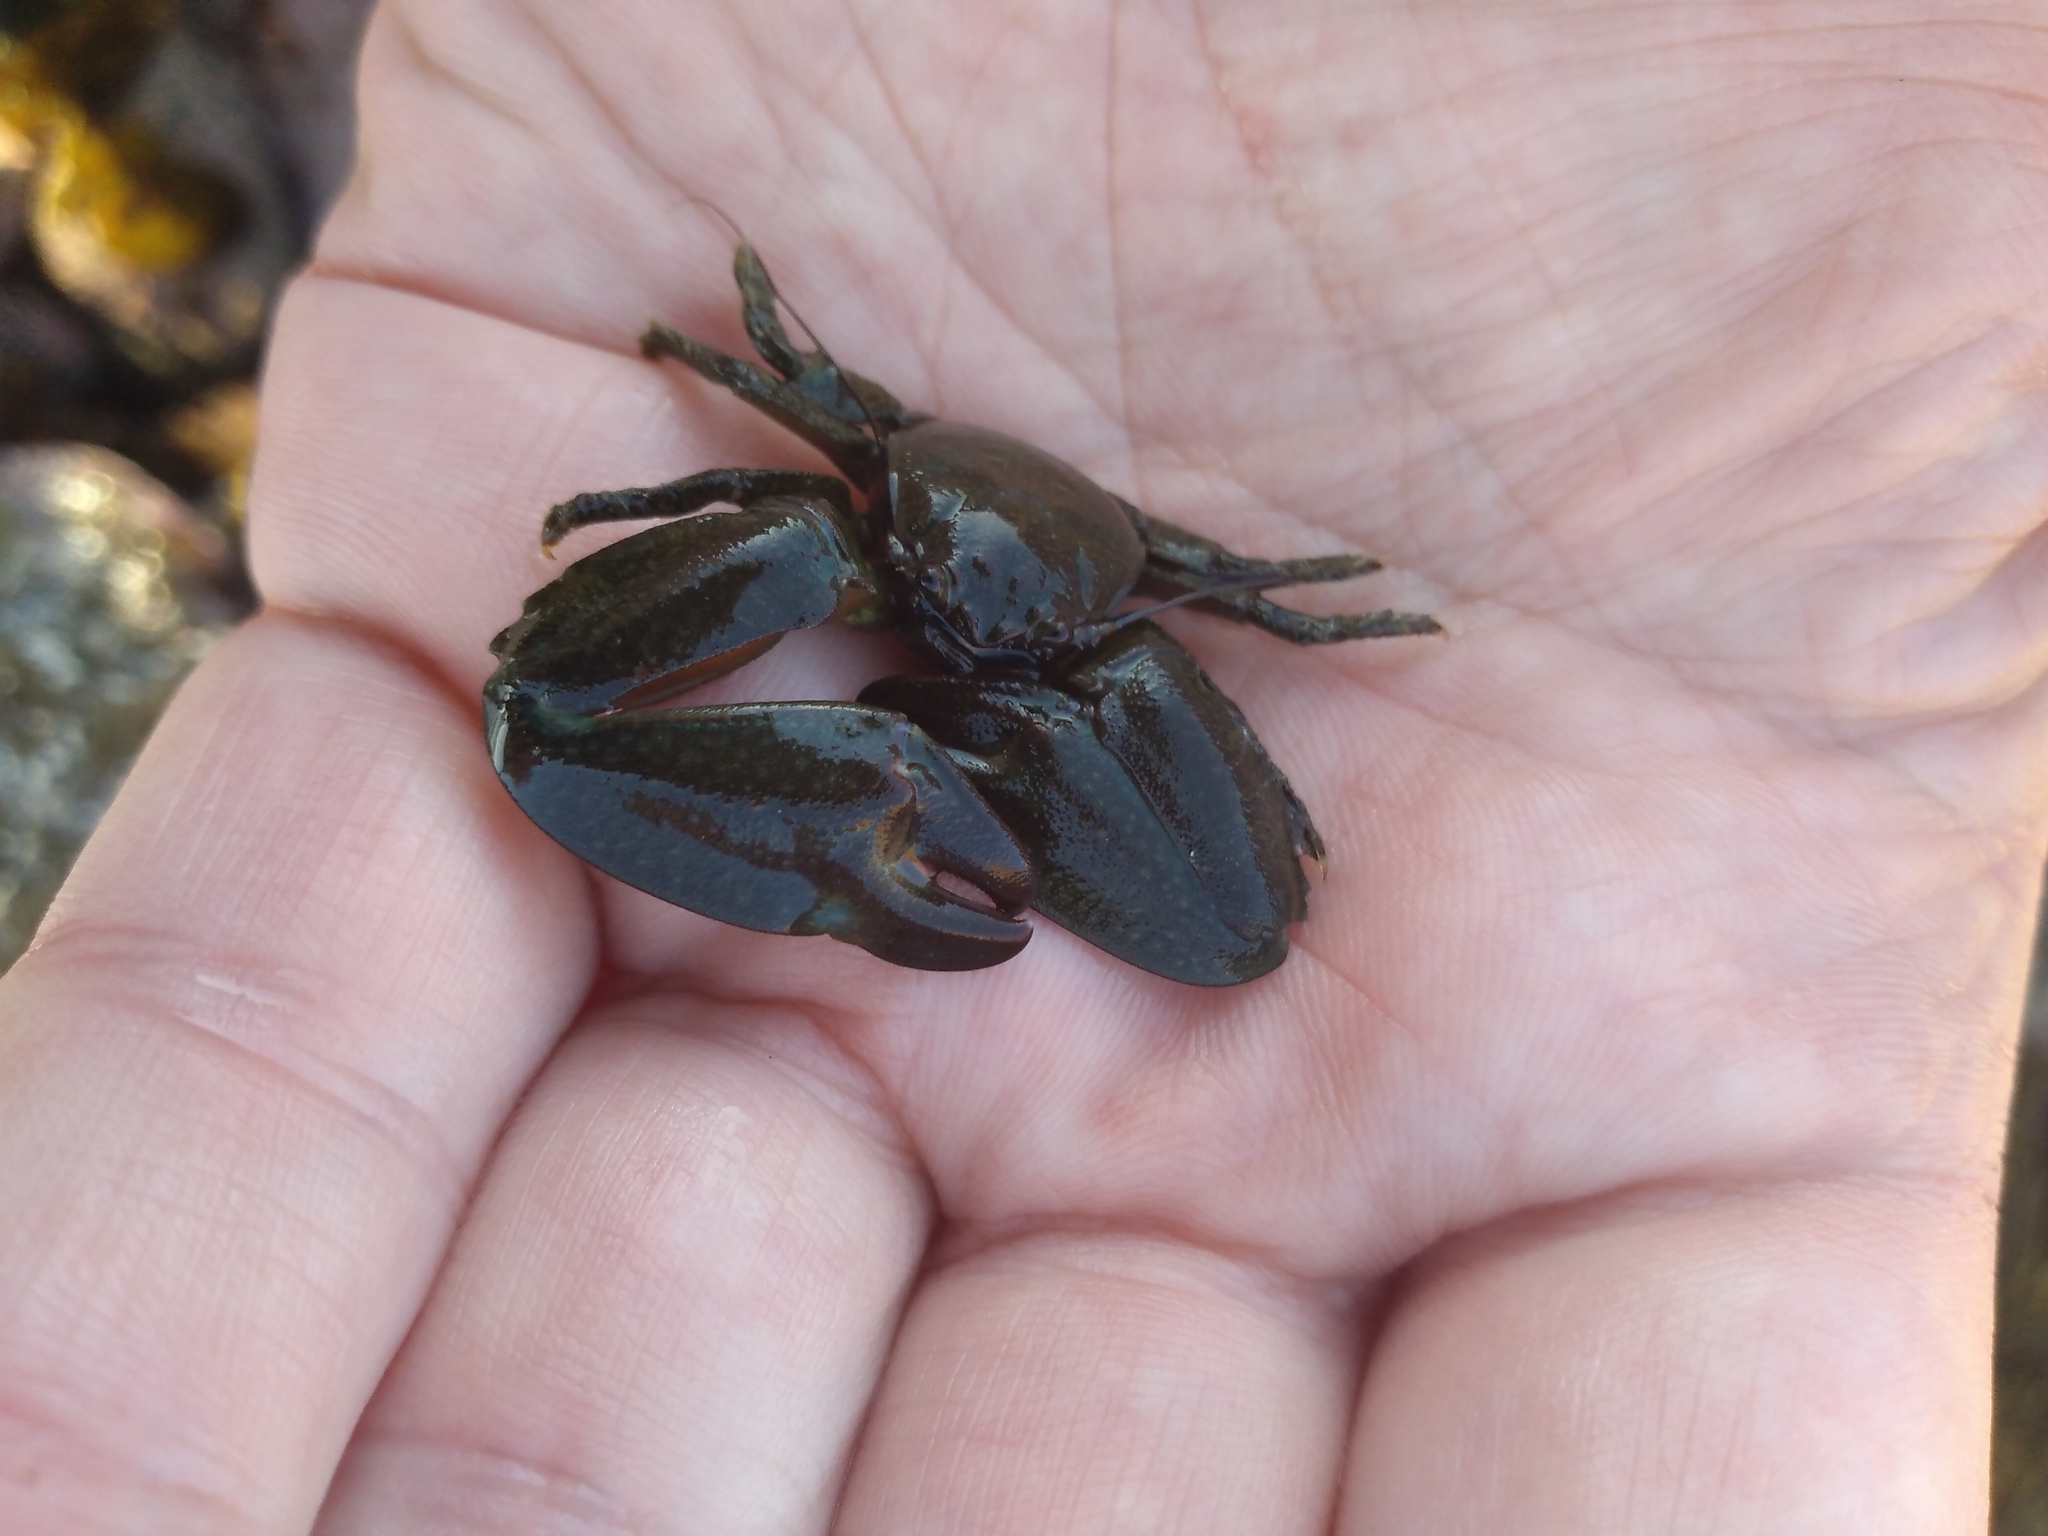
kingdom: Animalia
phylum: Arthropoda
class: Malacostraca
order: Decapoda
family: Porcellanidae
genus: Petrolisthes
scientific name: Petrolisthes elongatus
